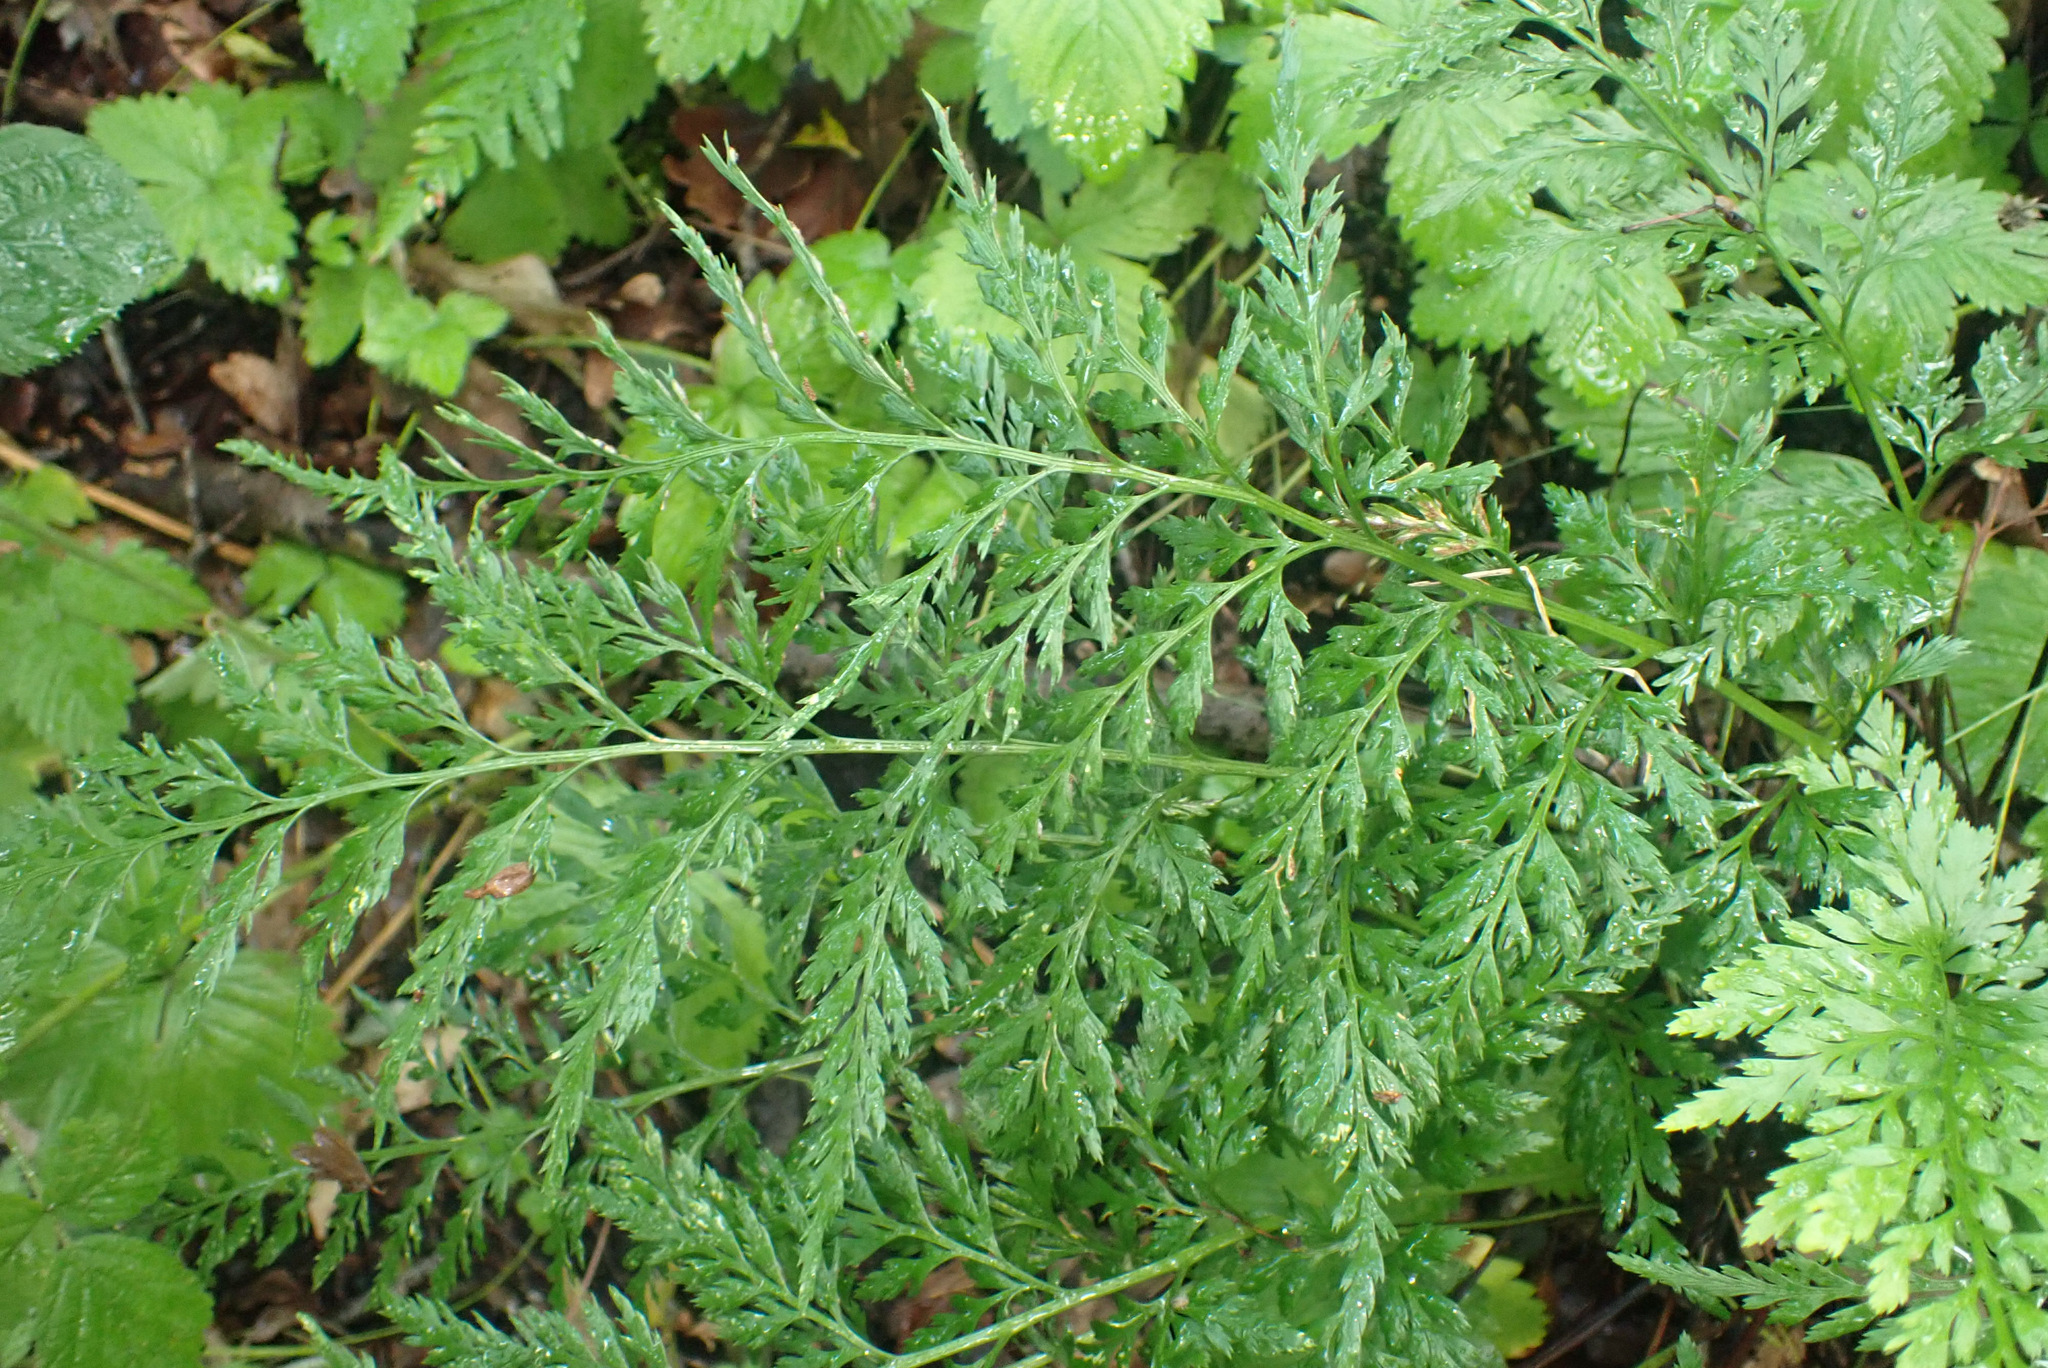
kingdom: Plantae
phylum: Tracheophyta
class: Polypodiopsida
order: Polypodiales
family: Aspleniaceae
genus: Asplenium
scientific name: Asplenium adiantum-nigrum
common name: Black spleenwort
